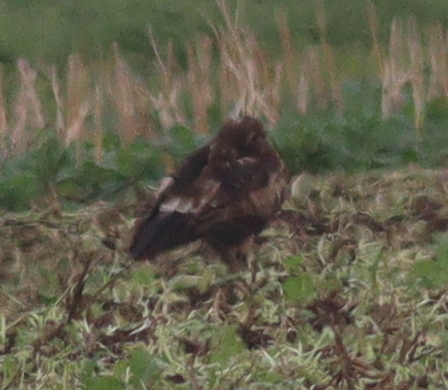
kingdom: Animalia
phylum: Chordata
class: Aves
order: Accipitriformes
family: Accipitridae
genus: Aquila
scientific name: Aquila pomarina
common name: Lesser spotted eagle
